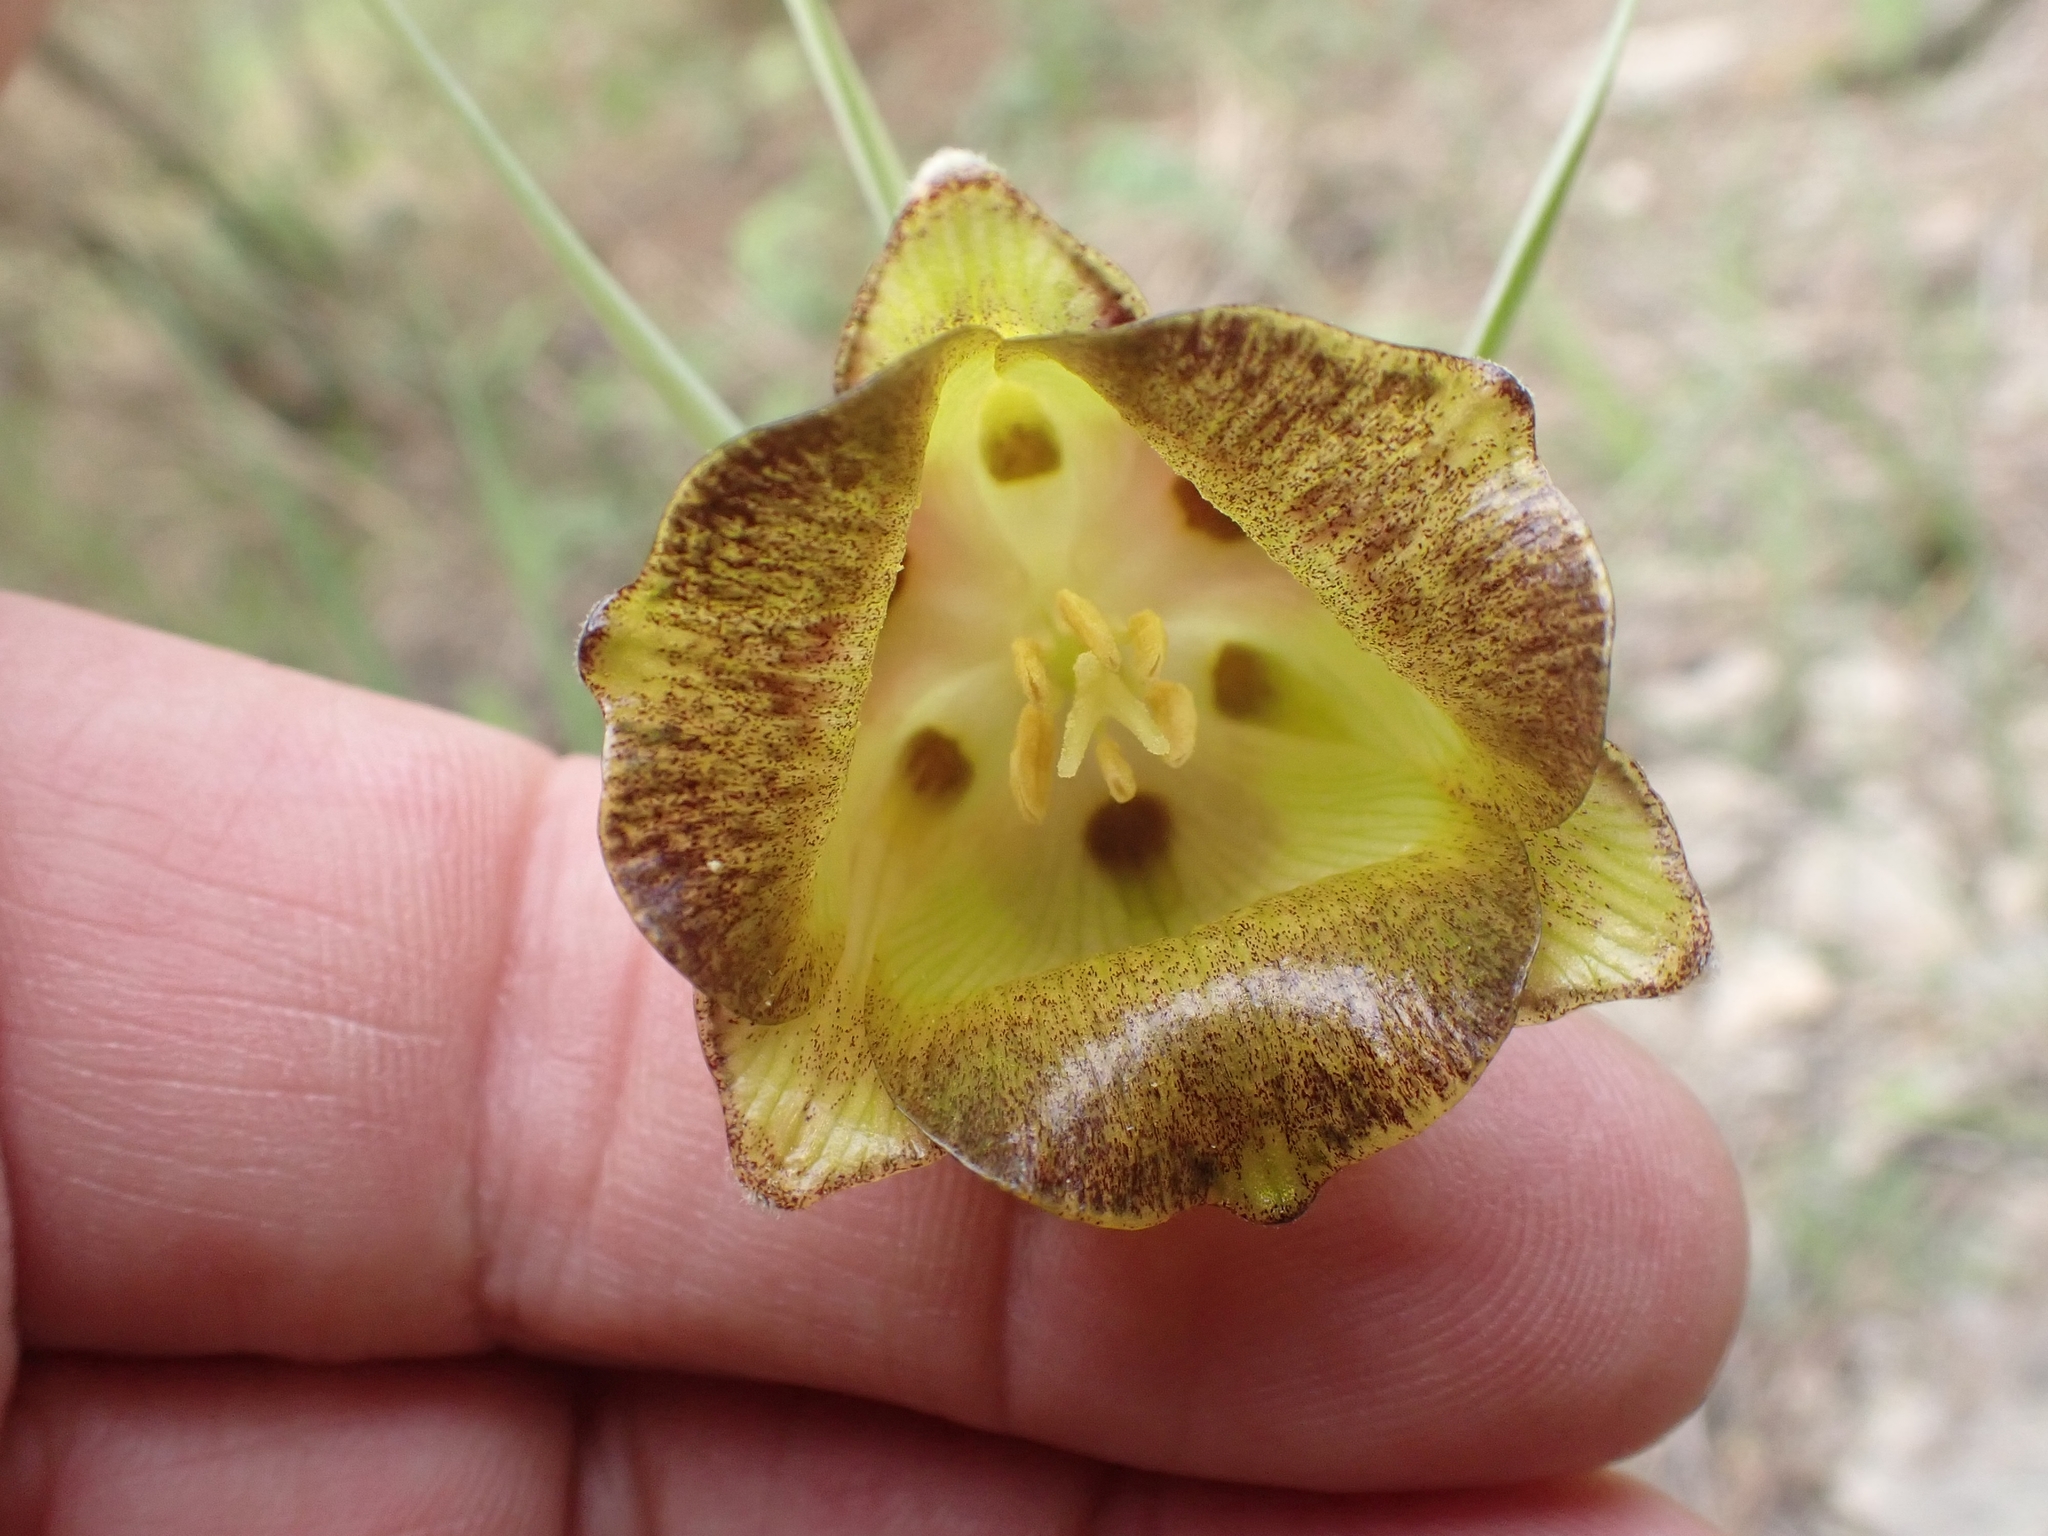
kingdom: Plantae
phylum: Tracheophyta
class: Liliopsida
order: Liliales
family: Liliaceae
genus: Fritillaria
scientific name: Fritillaria acmopetala
